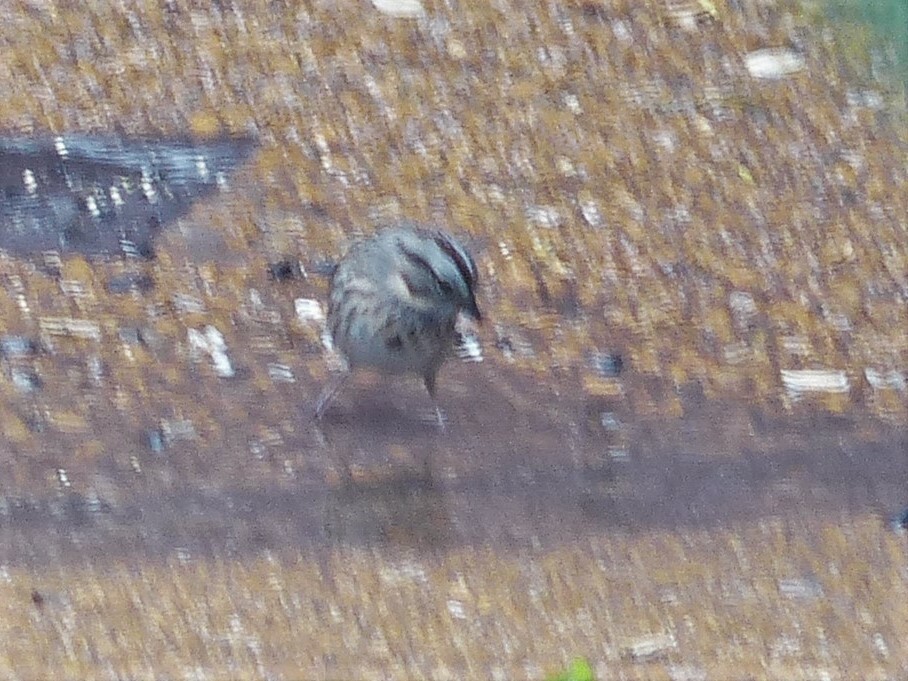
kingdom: Animalia
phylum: Chordata
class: Aves
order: Passeriformes
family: Passerellidae
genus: Melospiza
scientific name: Melospiza lincolnii
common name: Lincoln's sparrow
